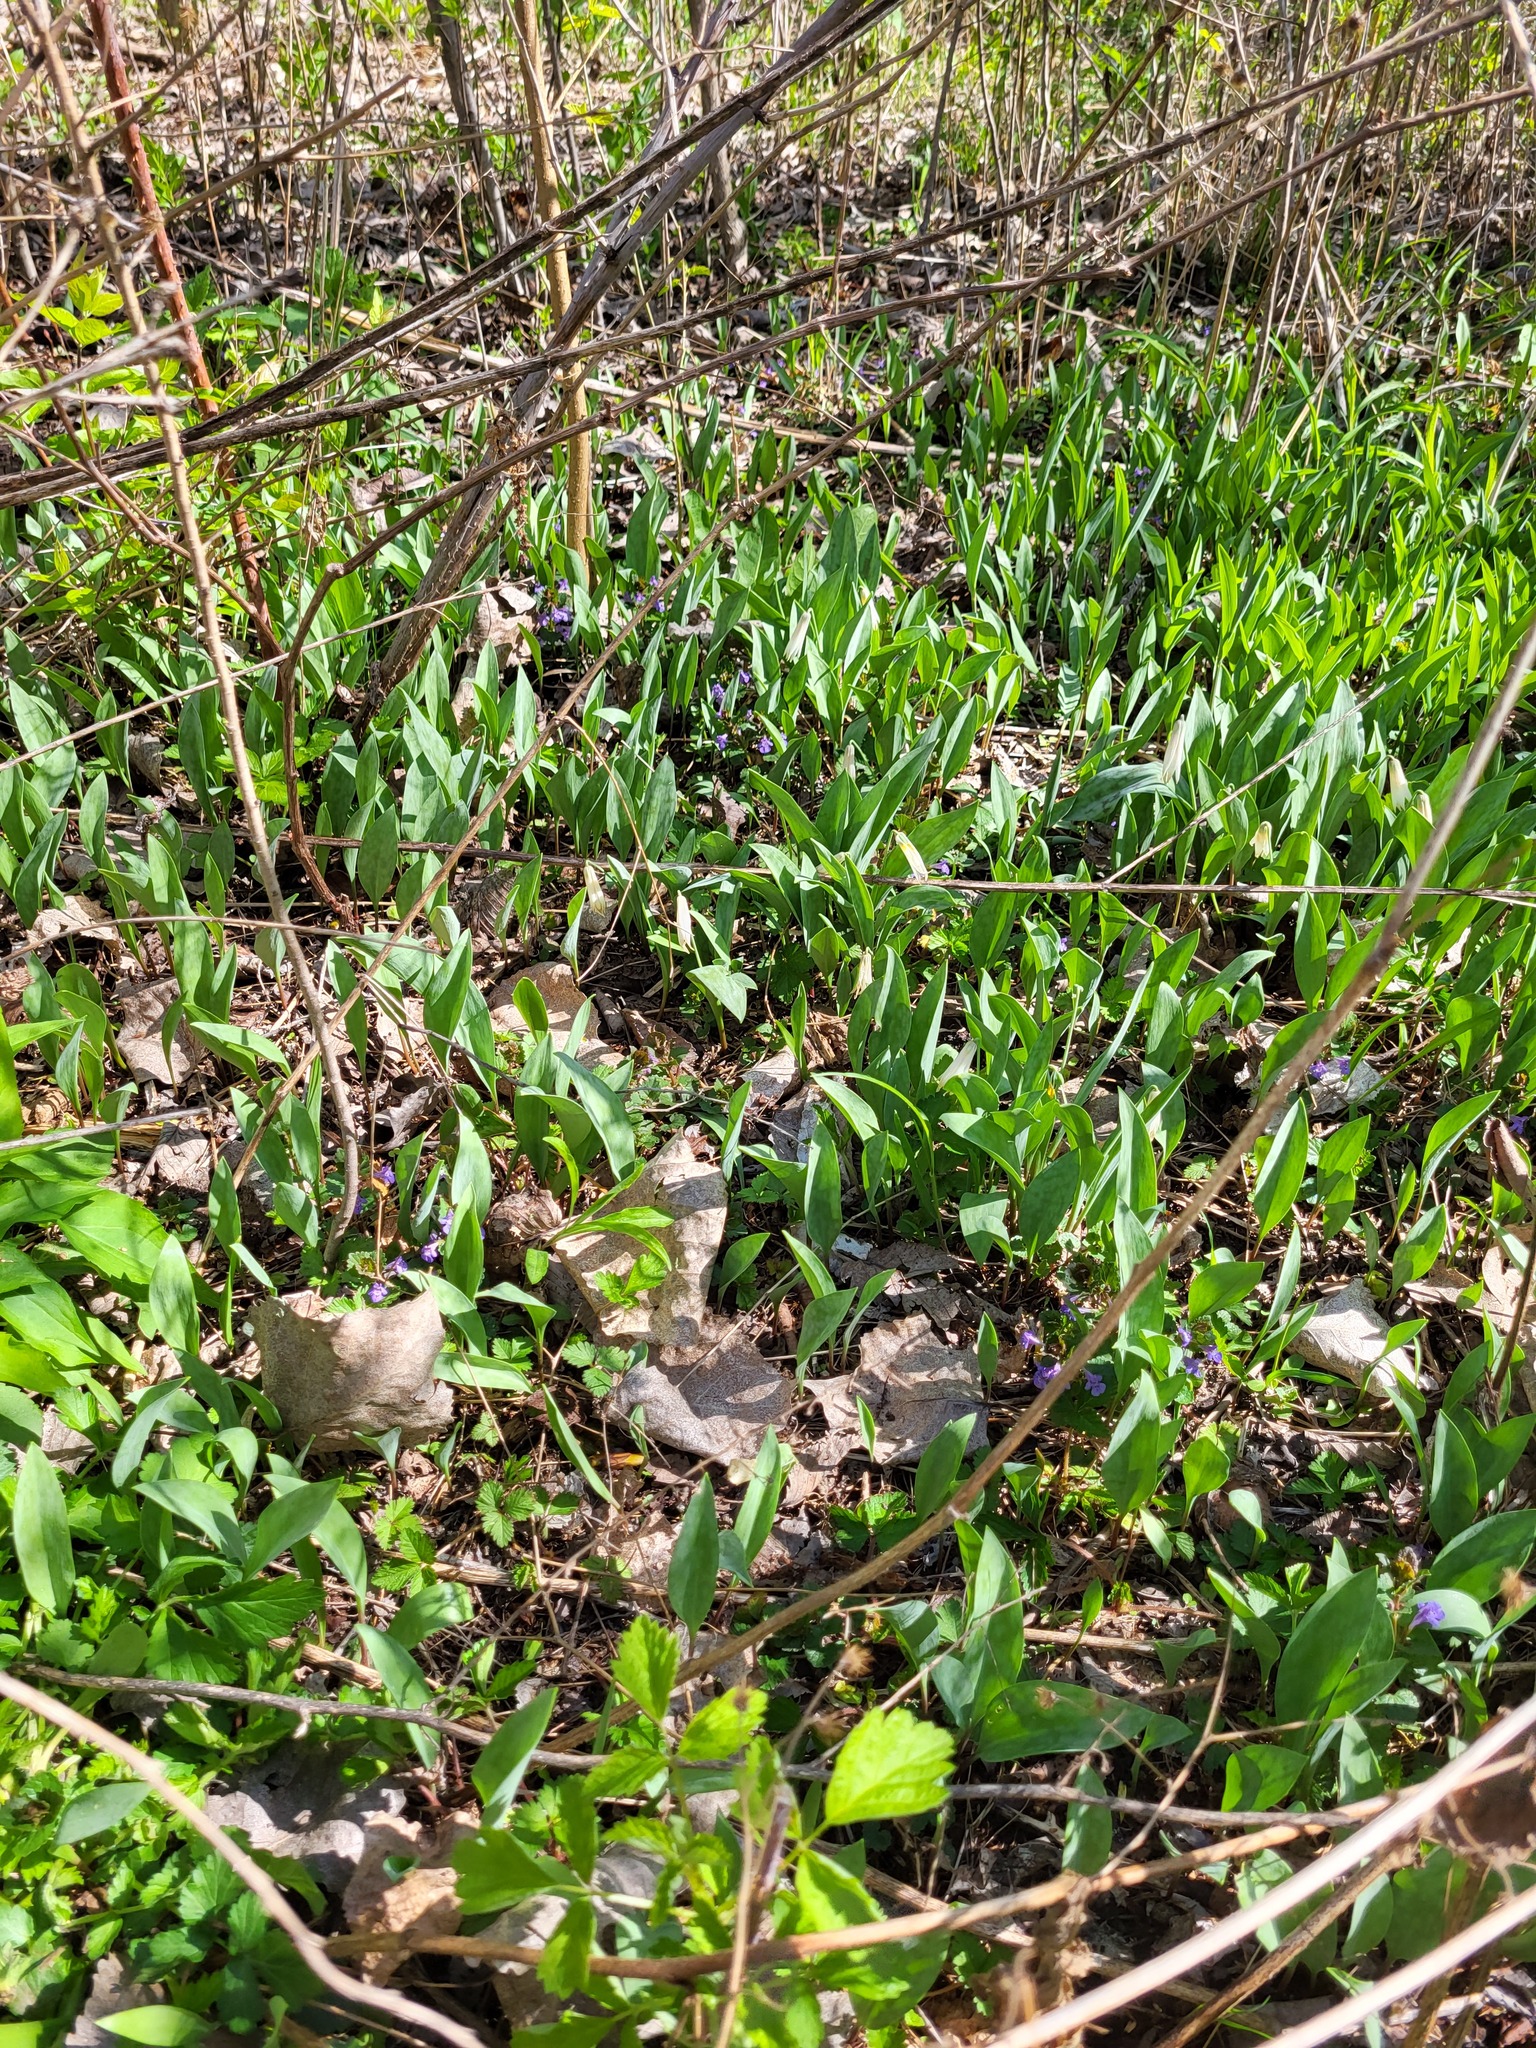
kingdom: Plantae
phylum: Tracheophyta
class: Liliopsida
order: Liliales
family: Liliaceae
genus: Erythronium
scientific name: Erythronium albidum
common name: White trout-lily
